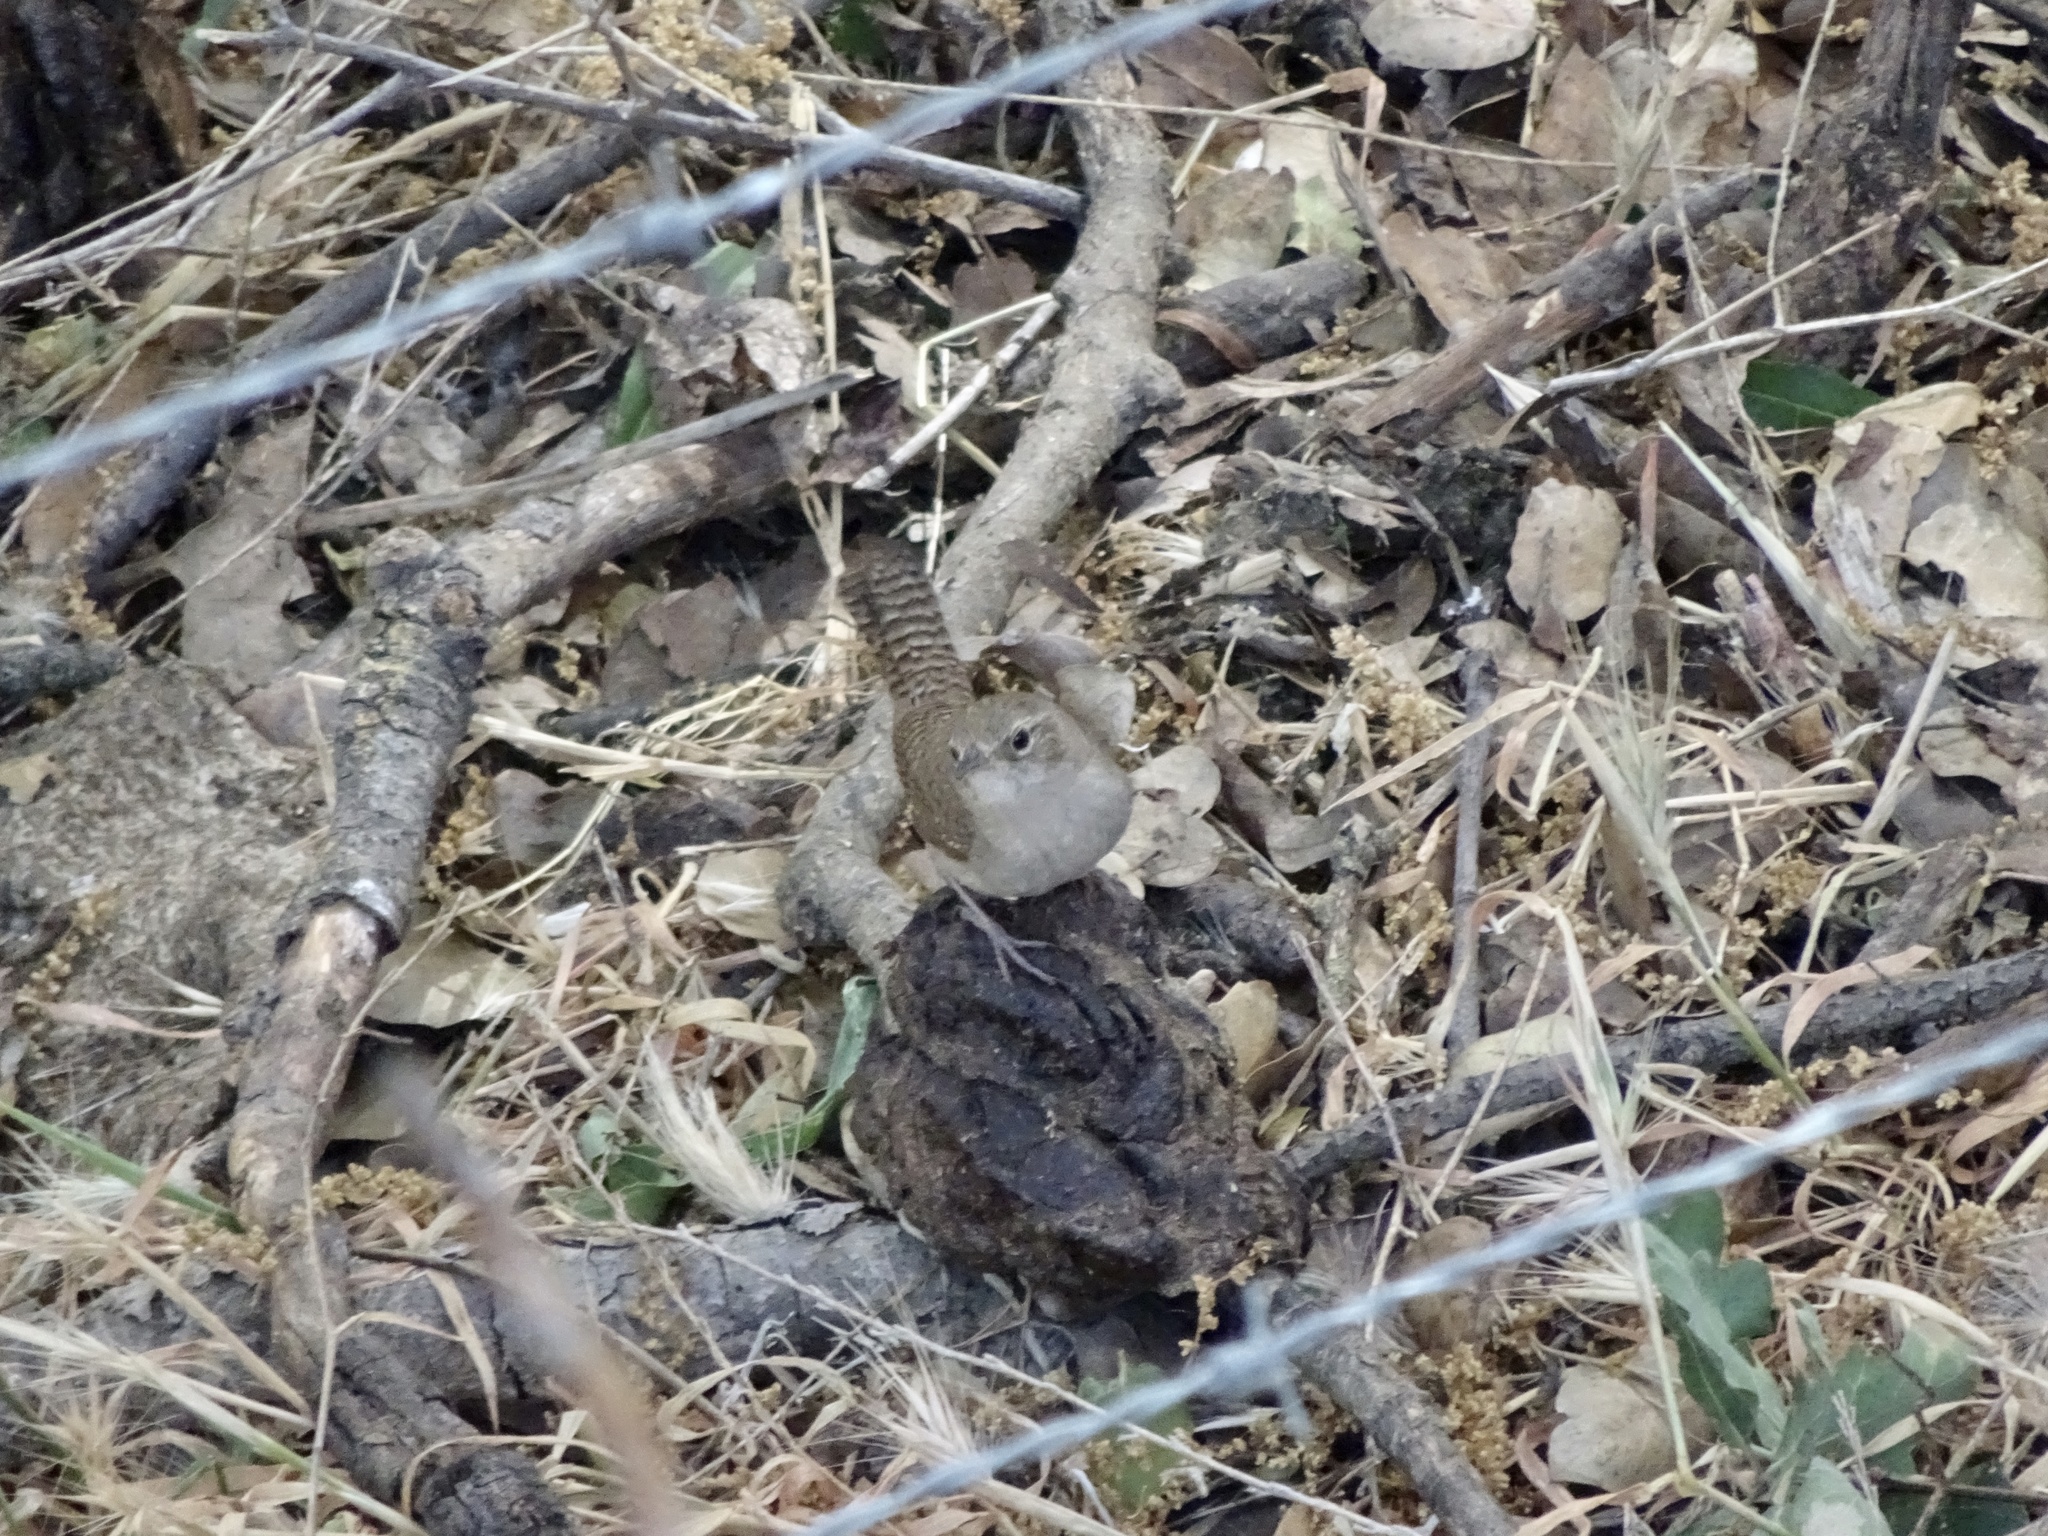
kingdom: Animalia
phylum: Chordata
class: Aves
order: Passeriformes
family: Troglodytidae
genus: Thryomanes
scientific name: Thryomanes bewickii
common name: Bewick's wren
